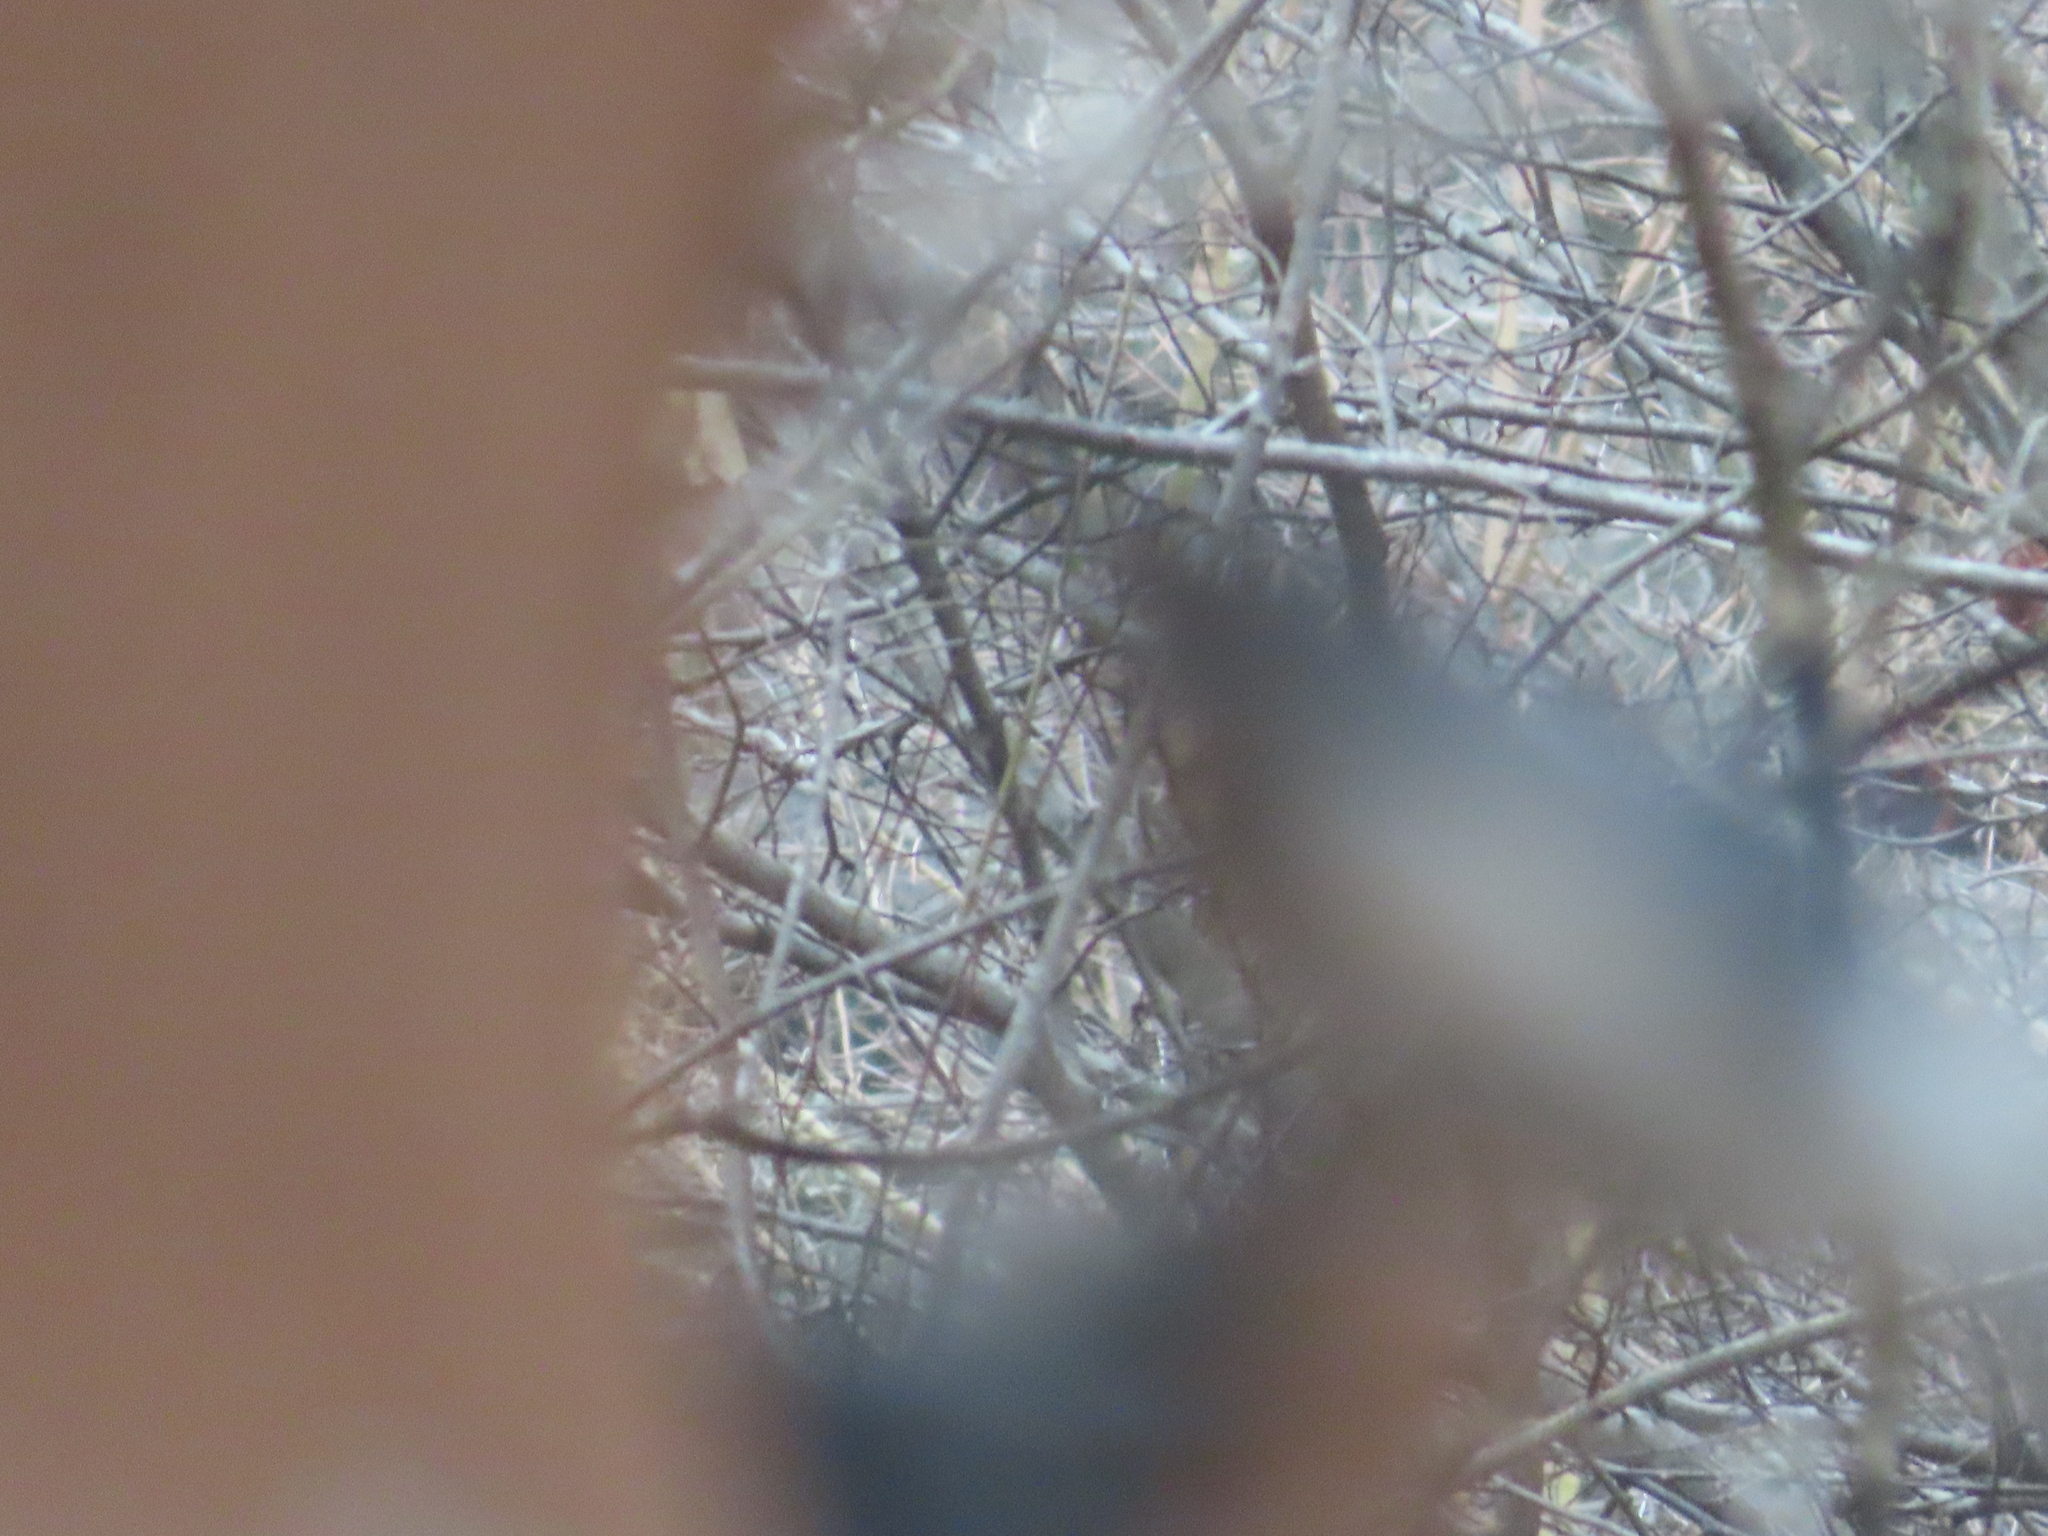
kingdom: Animalia
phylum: Chordata
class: Aves
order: Passeriformes
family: Turdidae
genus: Sialia
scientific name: Sialia sialis
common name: Eastern bluebird
